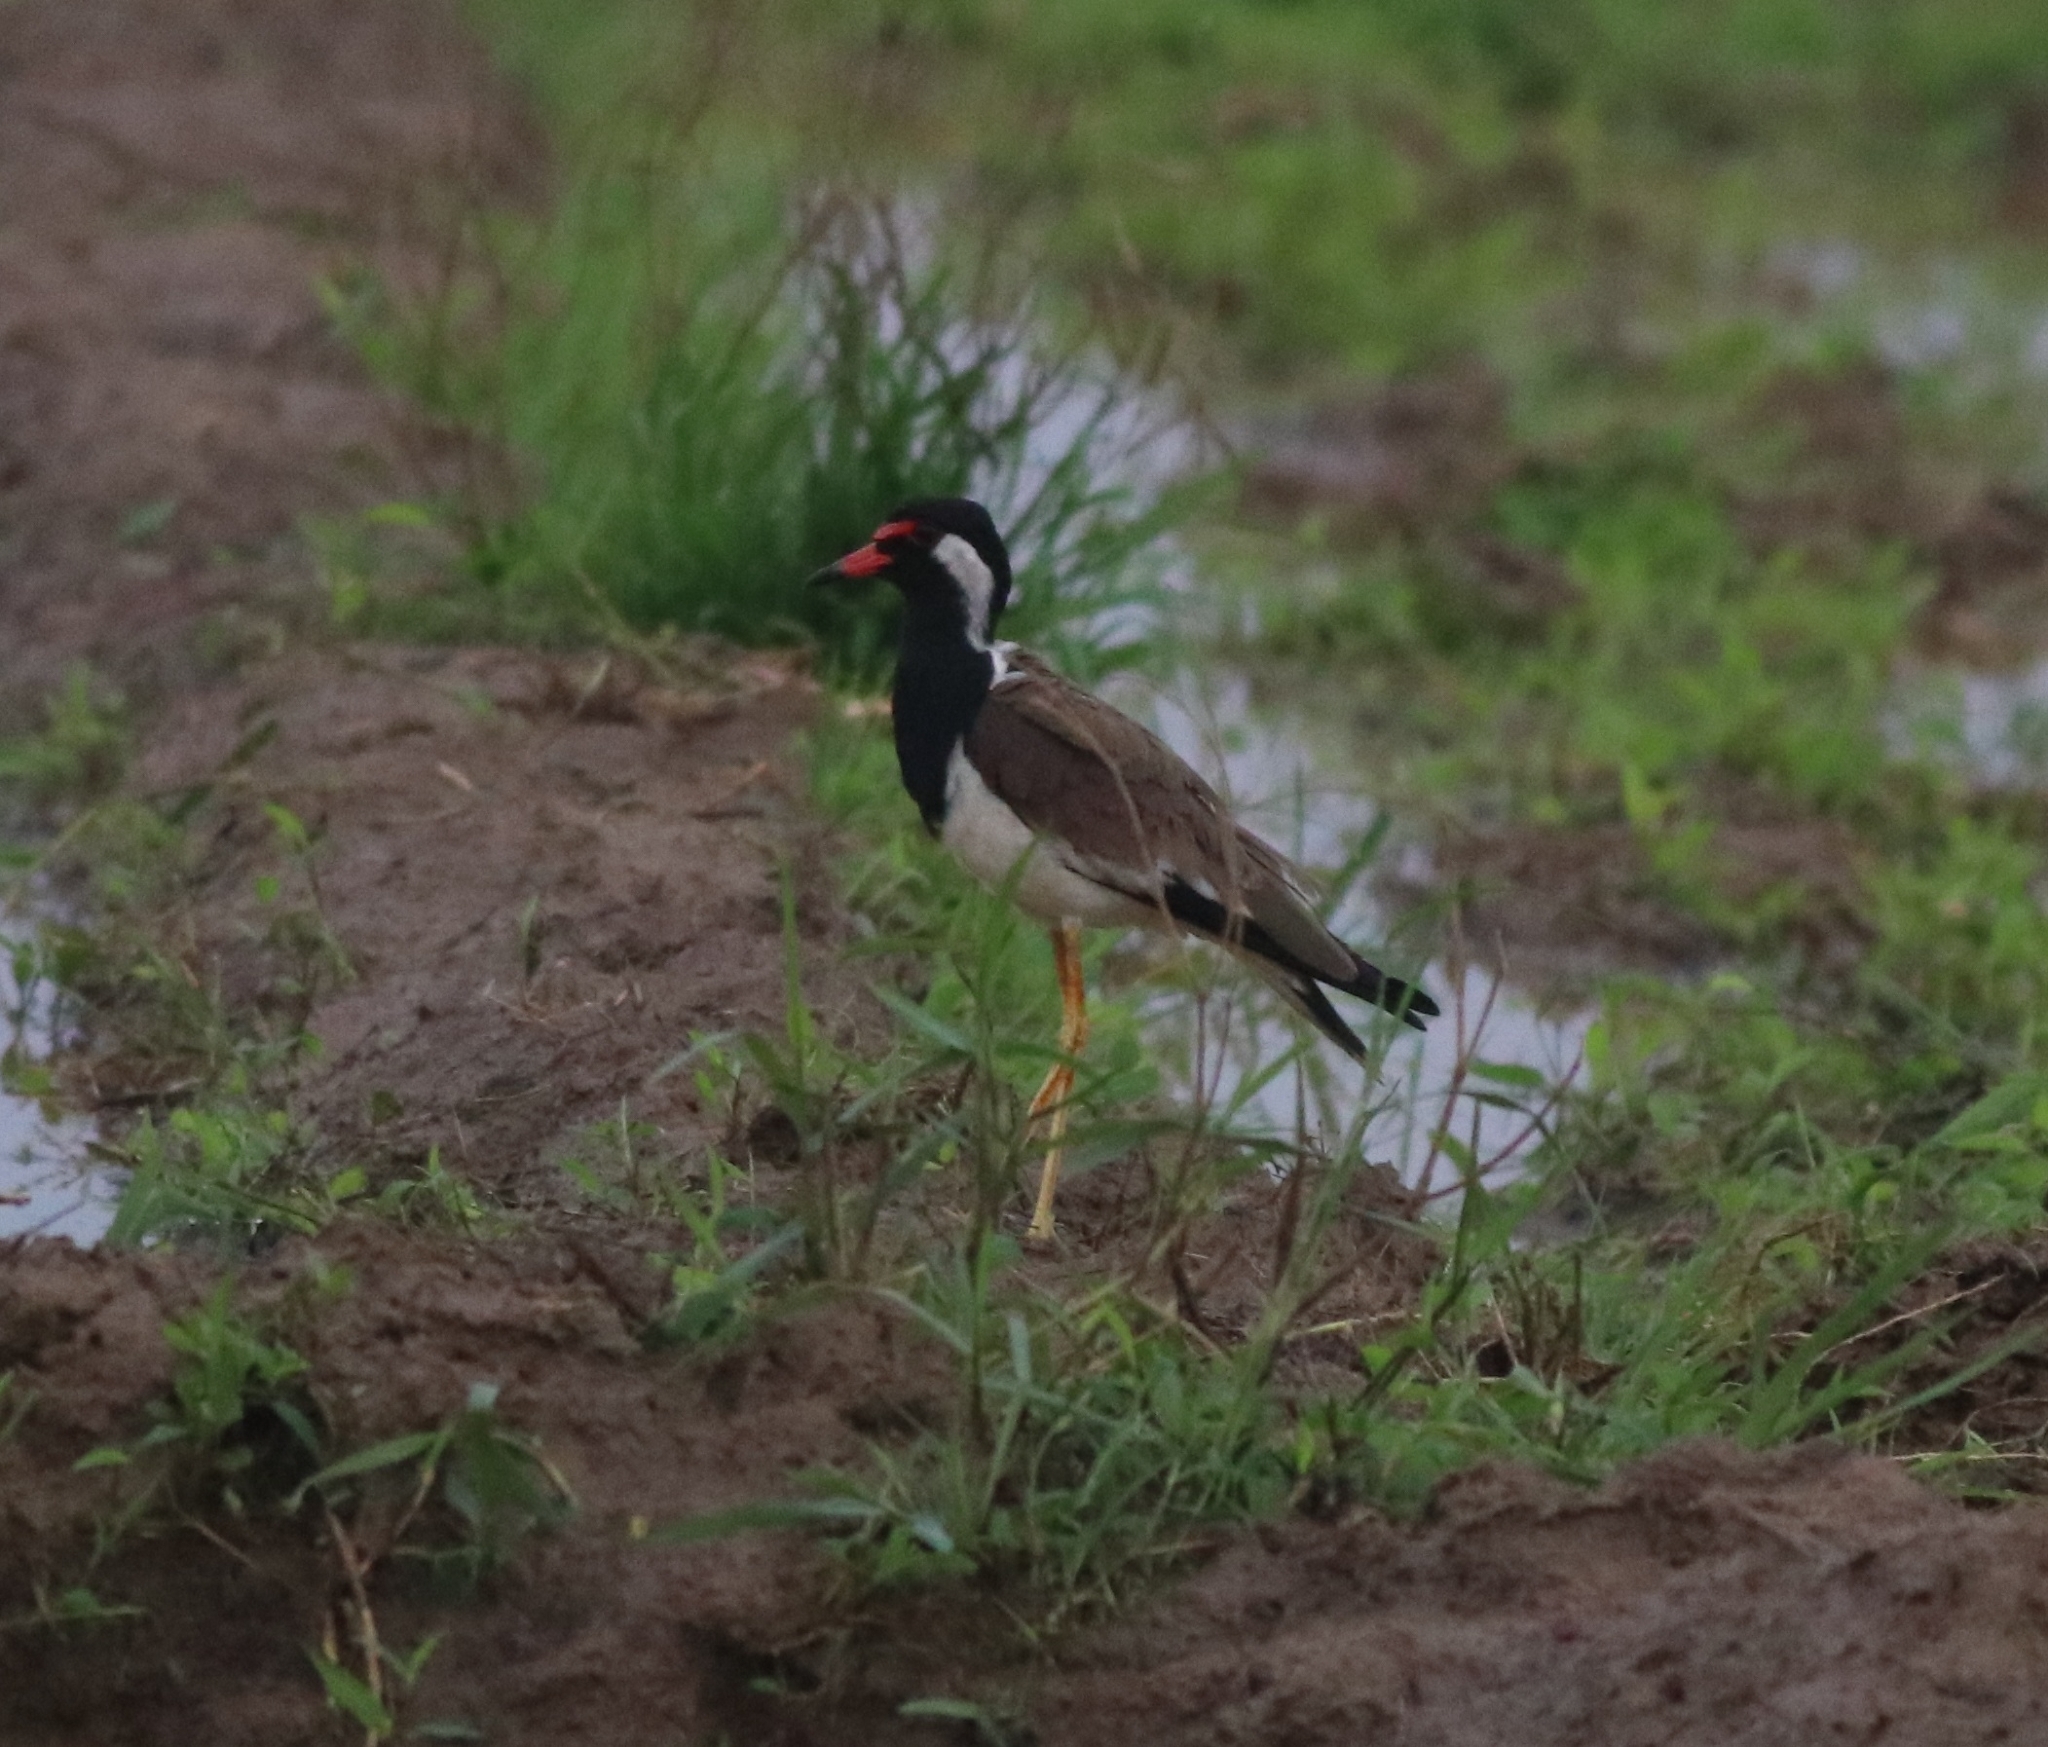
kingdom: Animalia
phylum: Chordata
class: Aves
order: Charadriiformes
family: Charadriidae
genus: Vanellus
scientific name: Vanellus indicus
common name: Red-wattled lapwing
